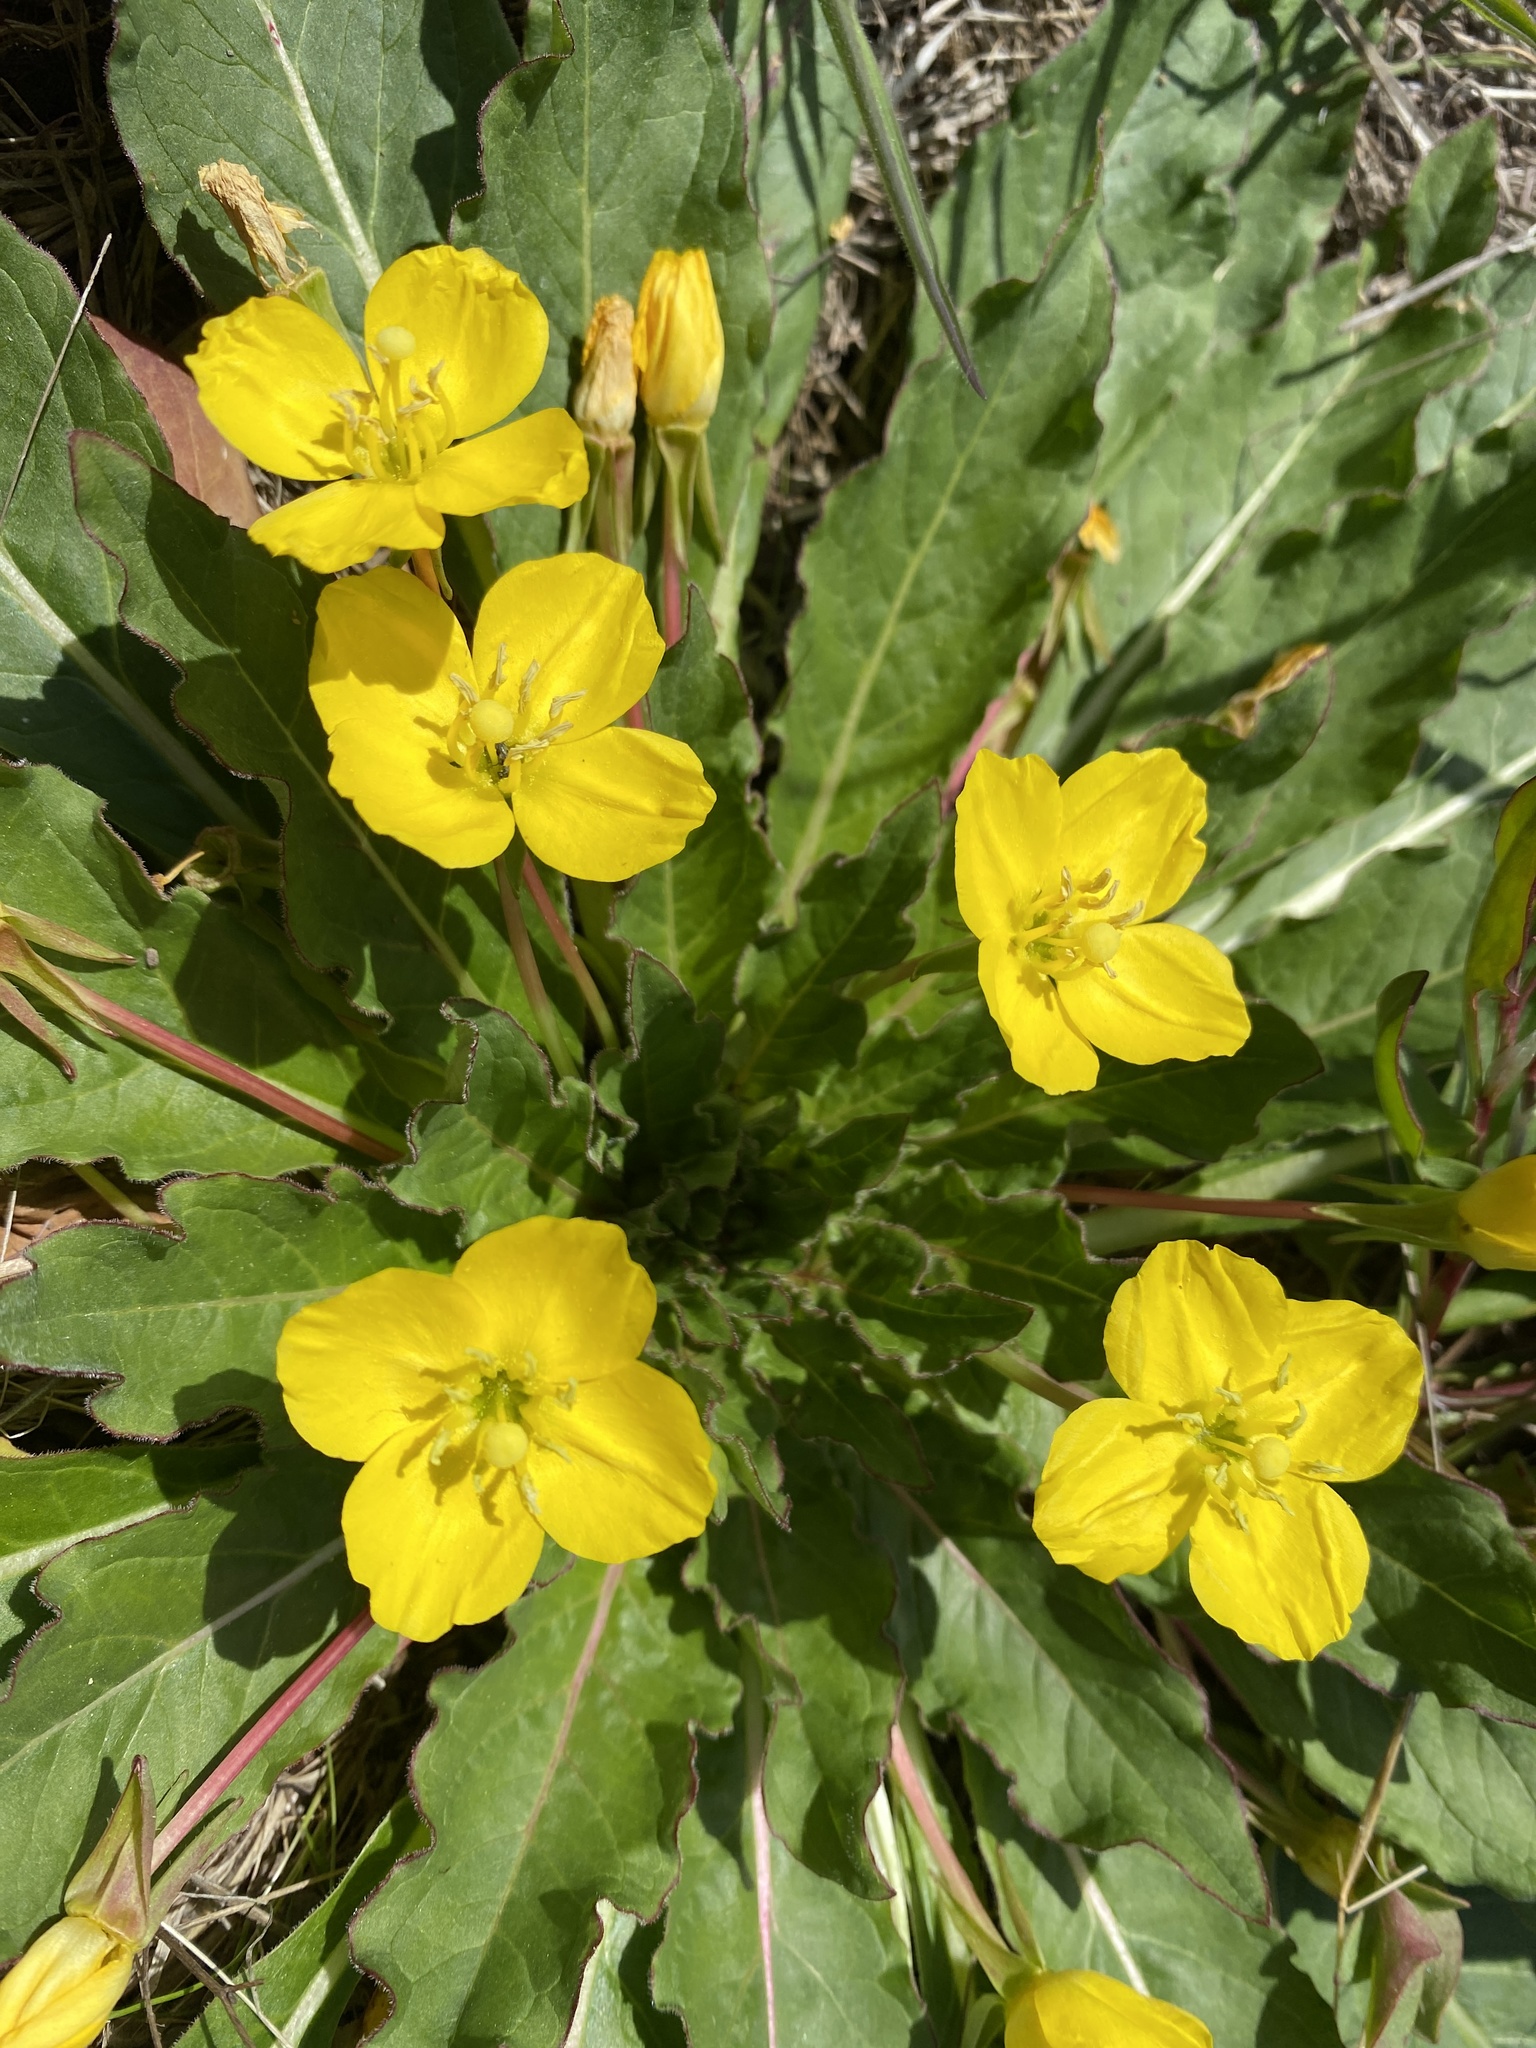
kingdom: Plantae
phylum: Tracheophyta
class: Magnoliopsida
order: Myrtales
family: Onagraceae
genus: Taraxia
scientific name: Taraxia ovata
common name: Goldeneggs
